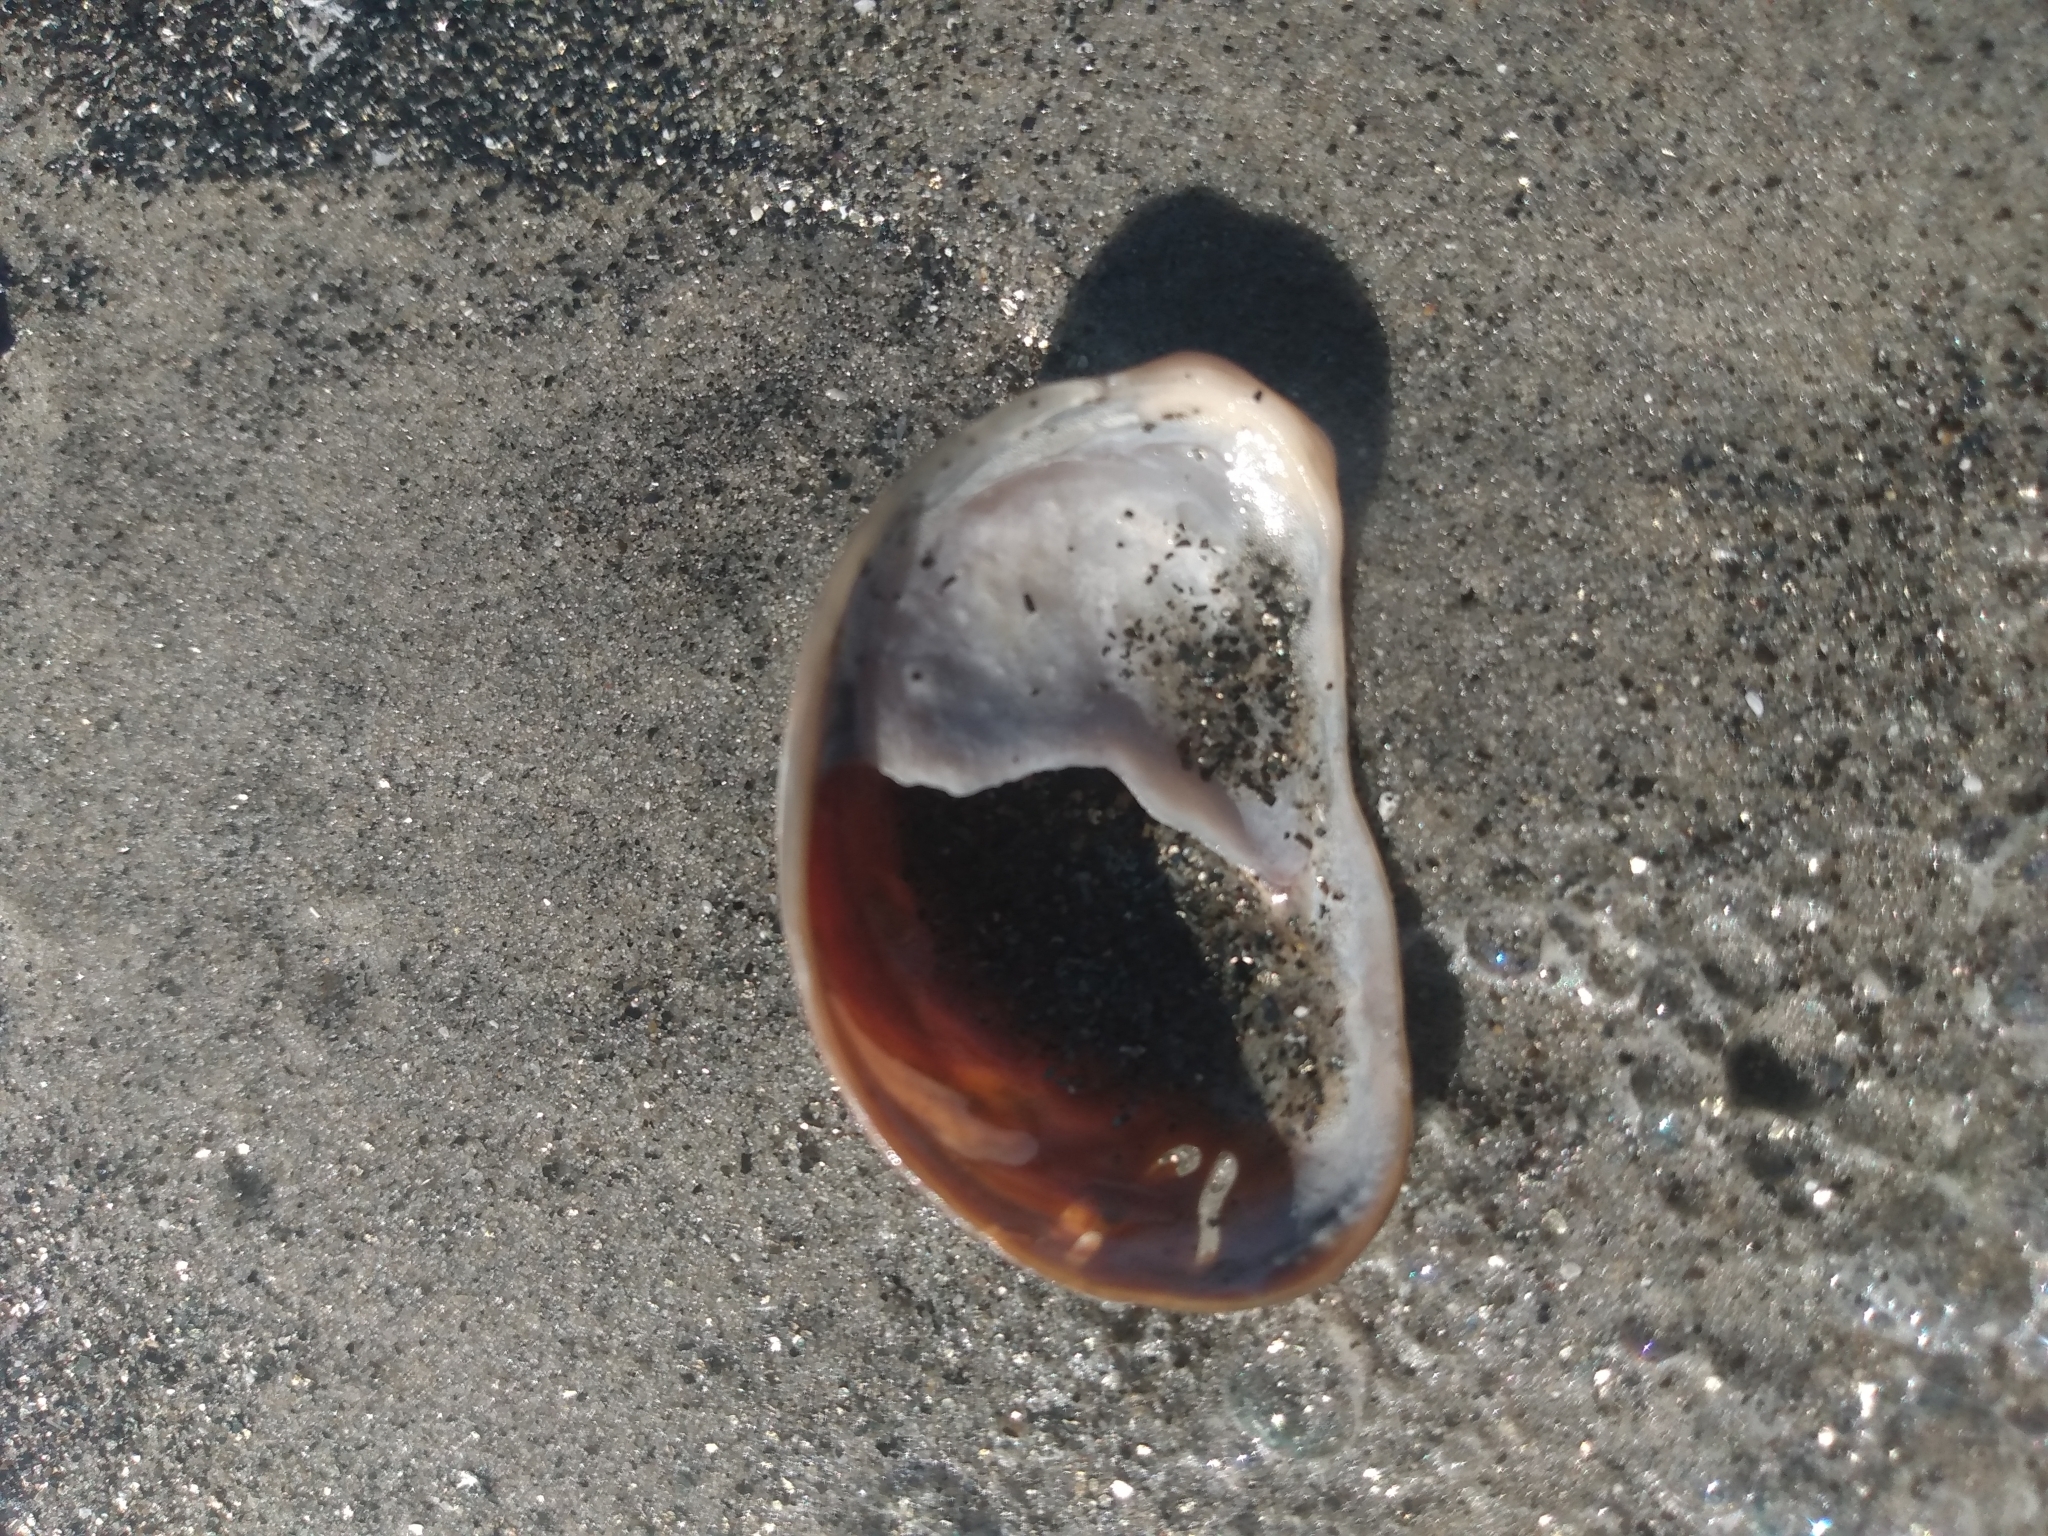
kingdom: Animalia
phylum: Mollusca
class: Gastropoda
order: Littorinimorpha
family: Calyptraeidae
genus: Crepidula
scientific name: Crepidula onyx
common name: Onyx slippersnail
